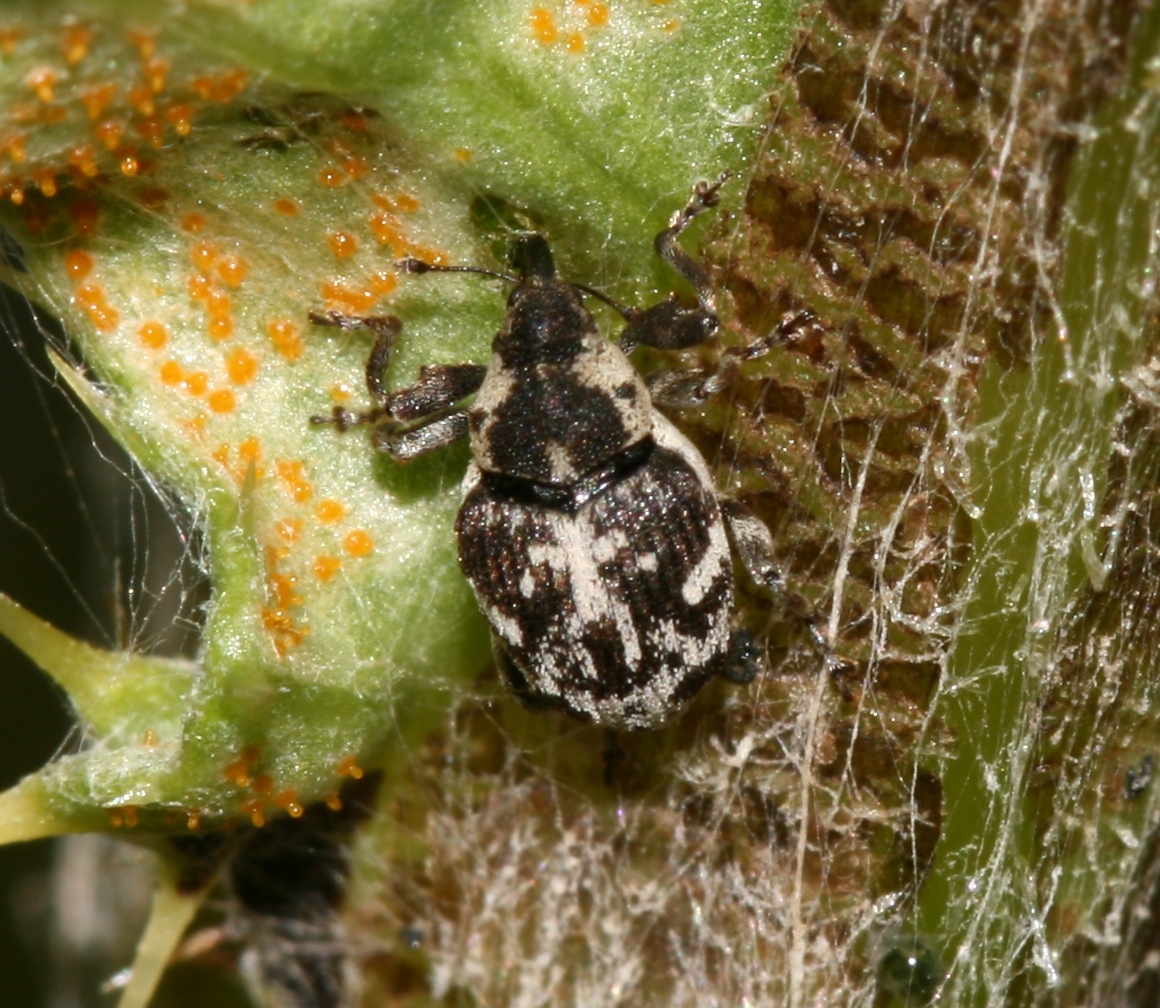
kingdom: Animalia
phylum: Arthropoda
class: Insecta
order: Coleoptera
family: Curculionidae
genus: Hadroplontus
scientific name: Hadroplontus litura
